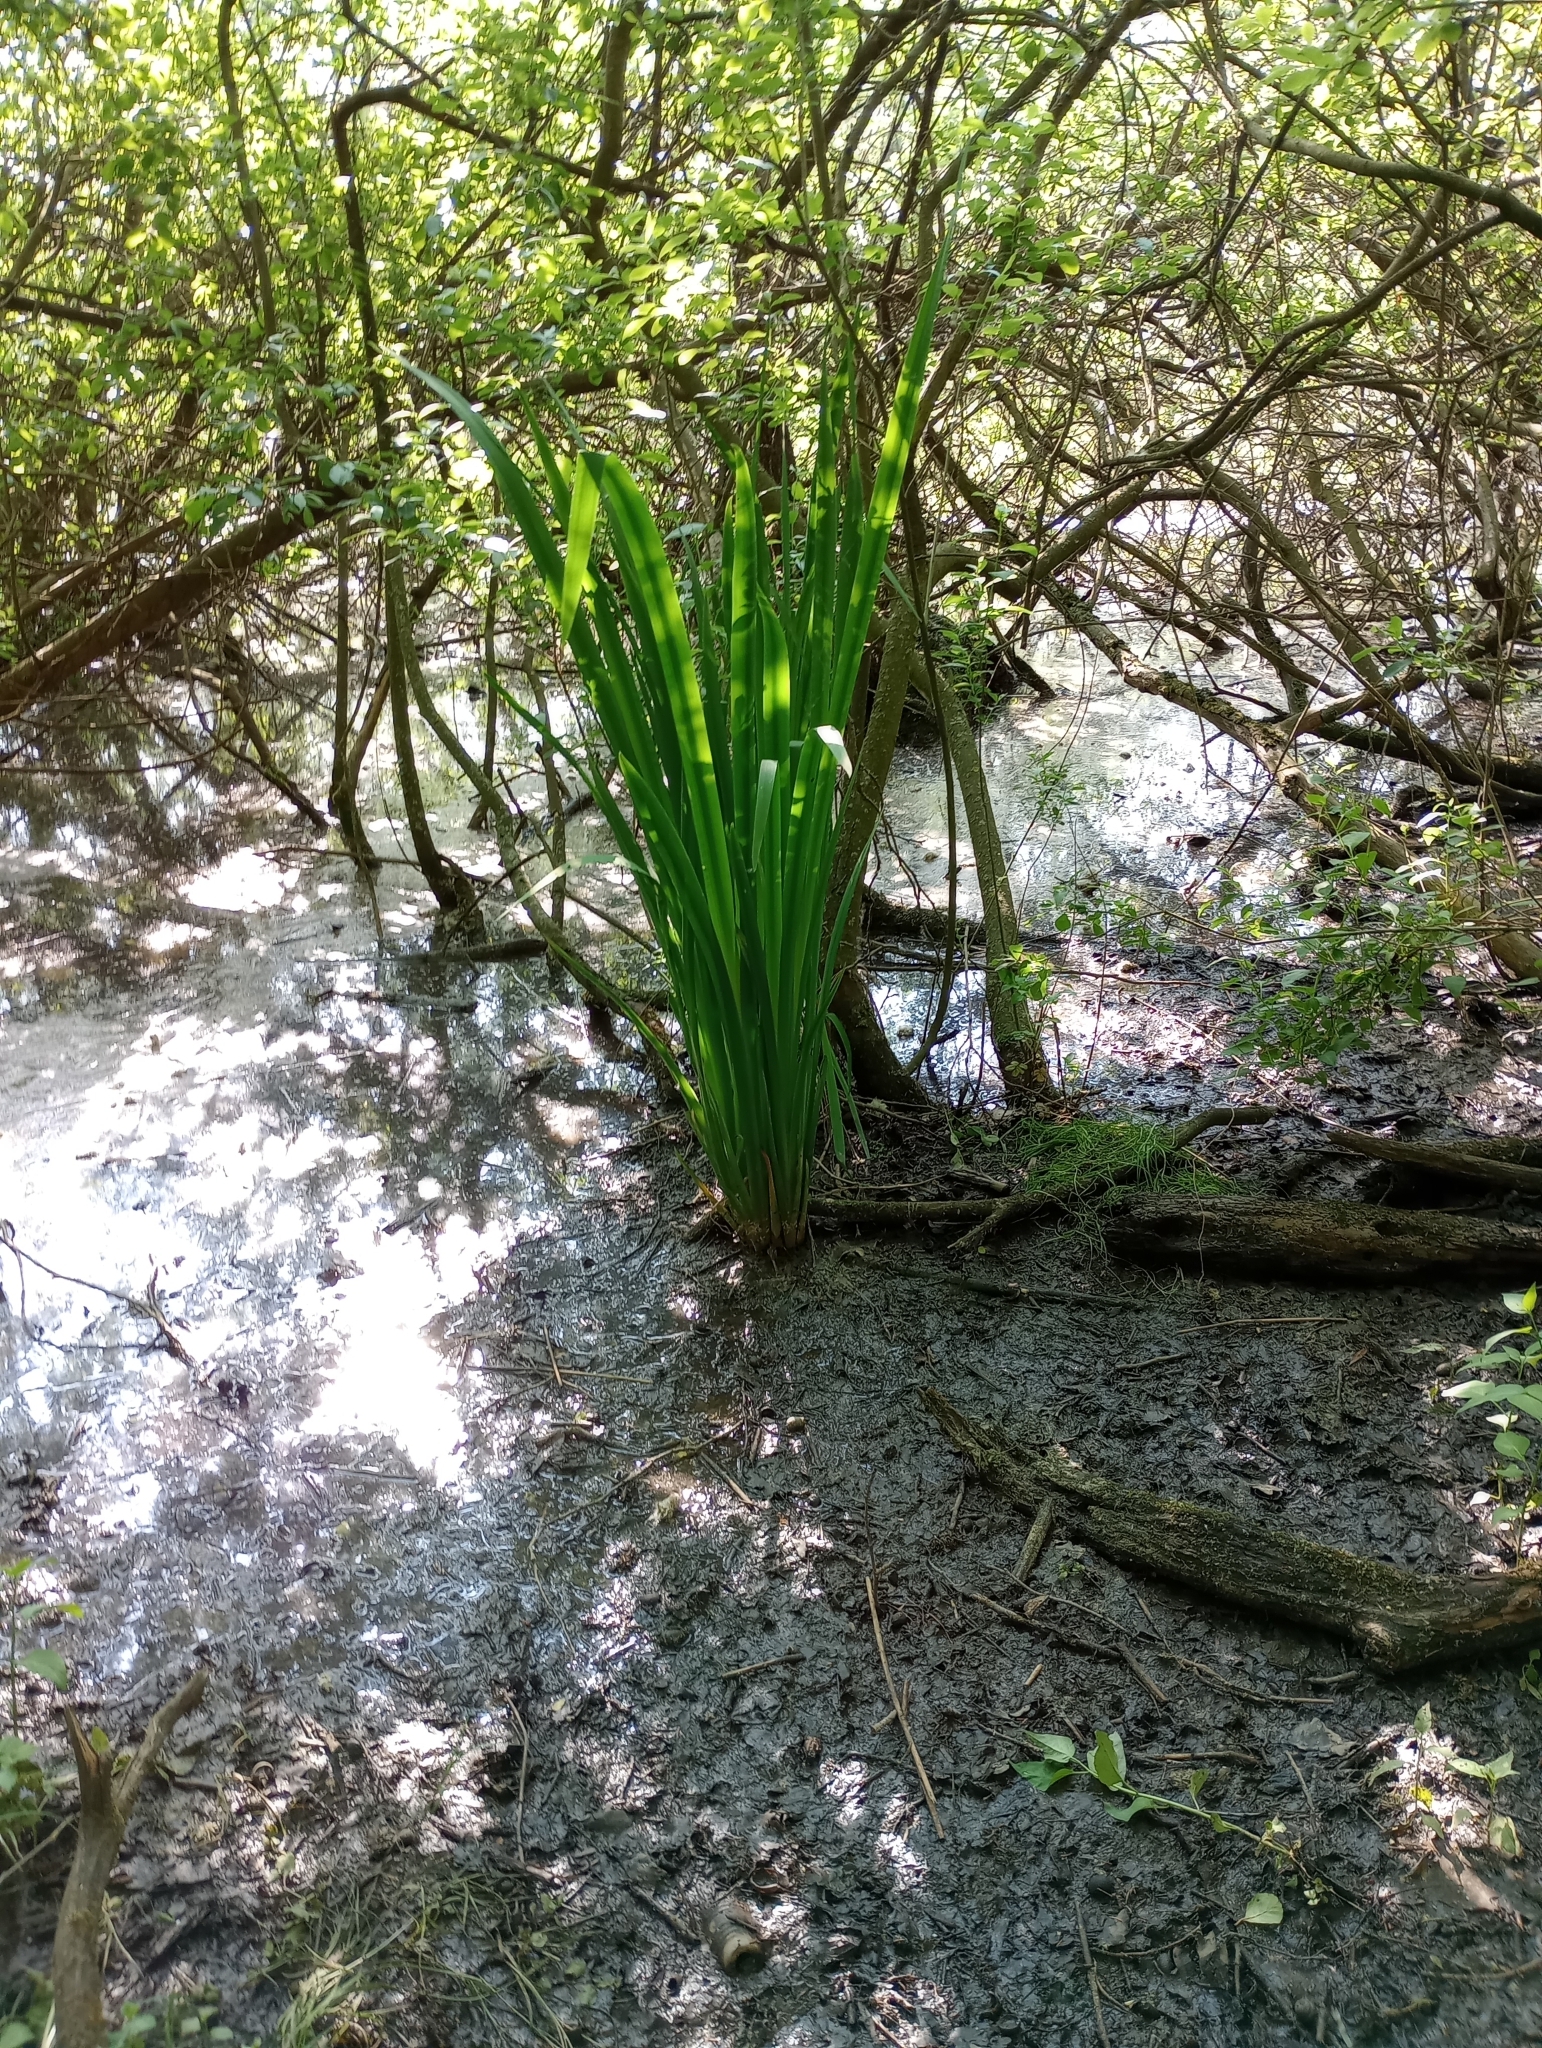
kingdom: Plantae
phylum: Tracheophyta
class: Liliopsida
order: Asparagales
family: Iridaceae
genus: Iris
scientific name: Iris pseudacorus
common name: Yellow flag
